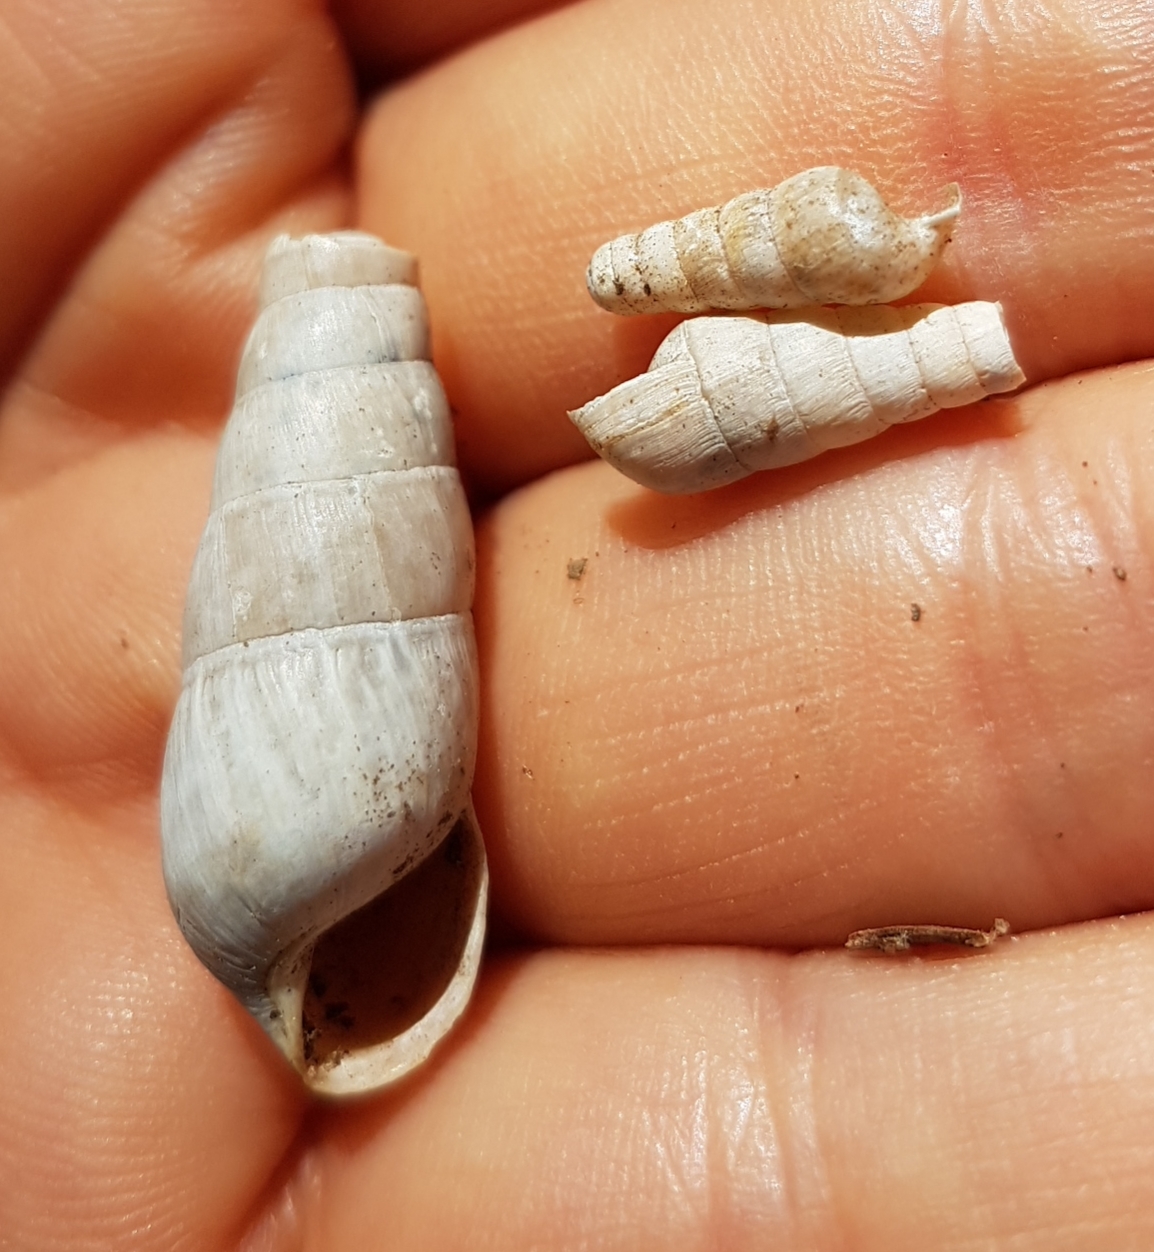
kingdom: Animalia
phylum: Mollusca
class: Gastropoda
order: Stylommatophora
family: Achatinidae
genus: Rumina
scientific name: Rumina decollata
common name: Decollate snail
